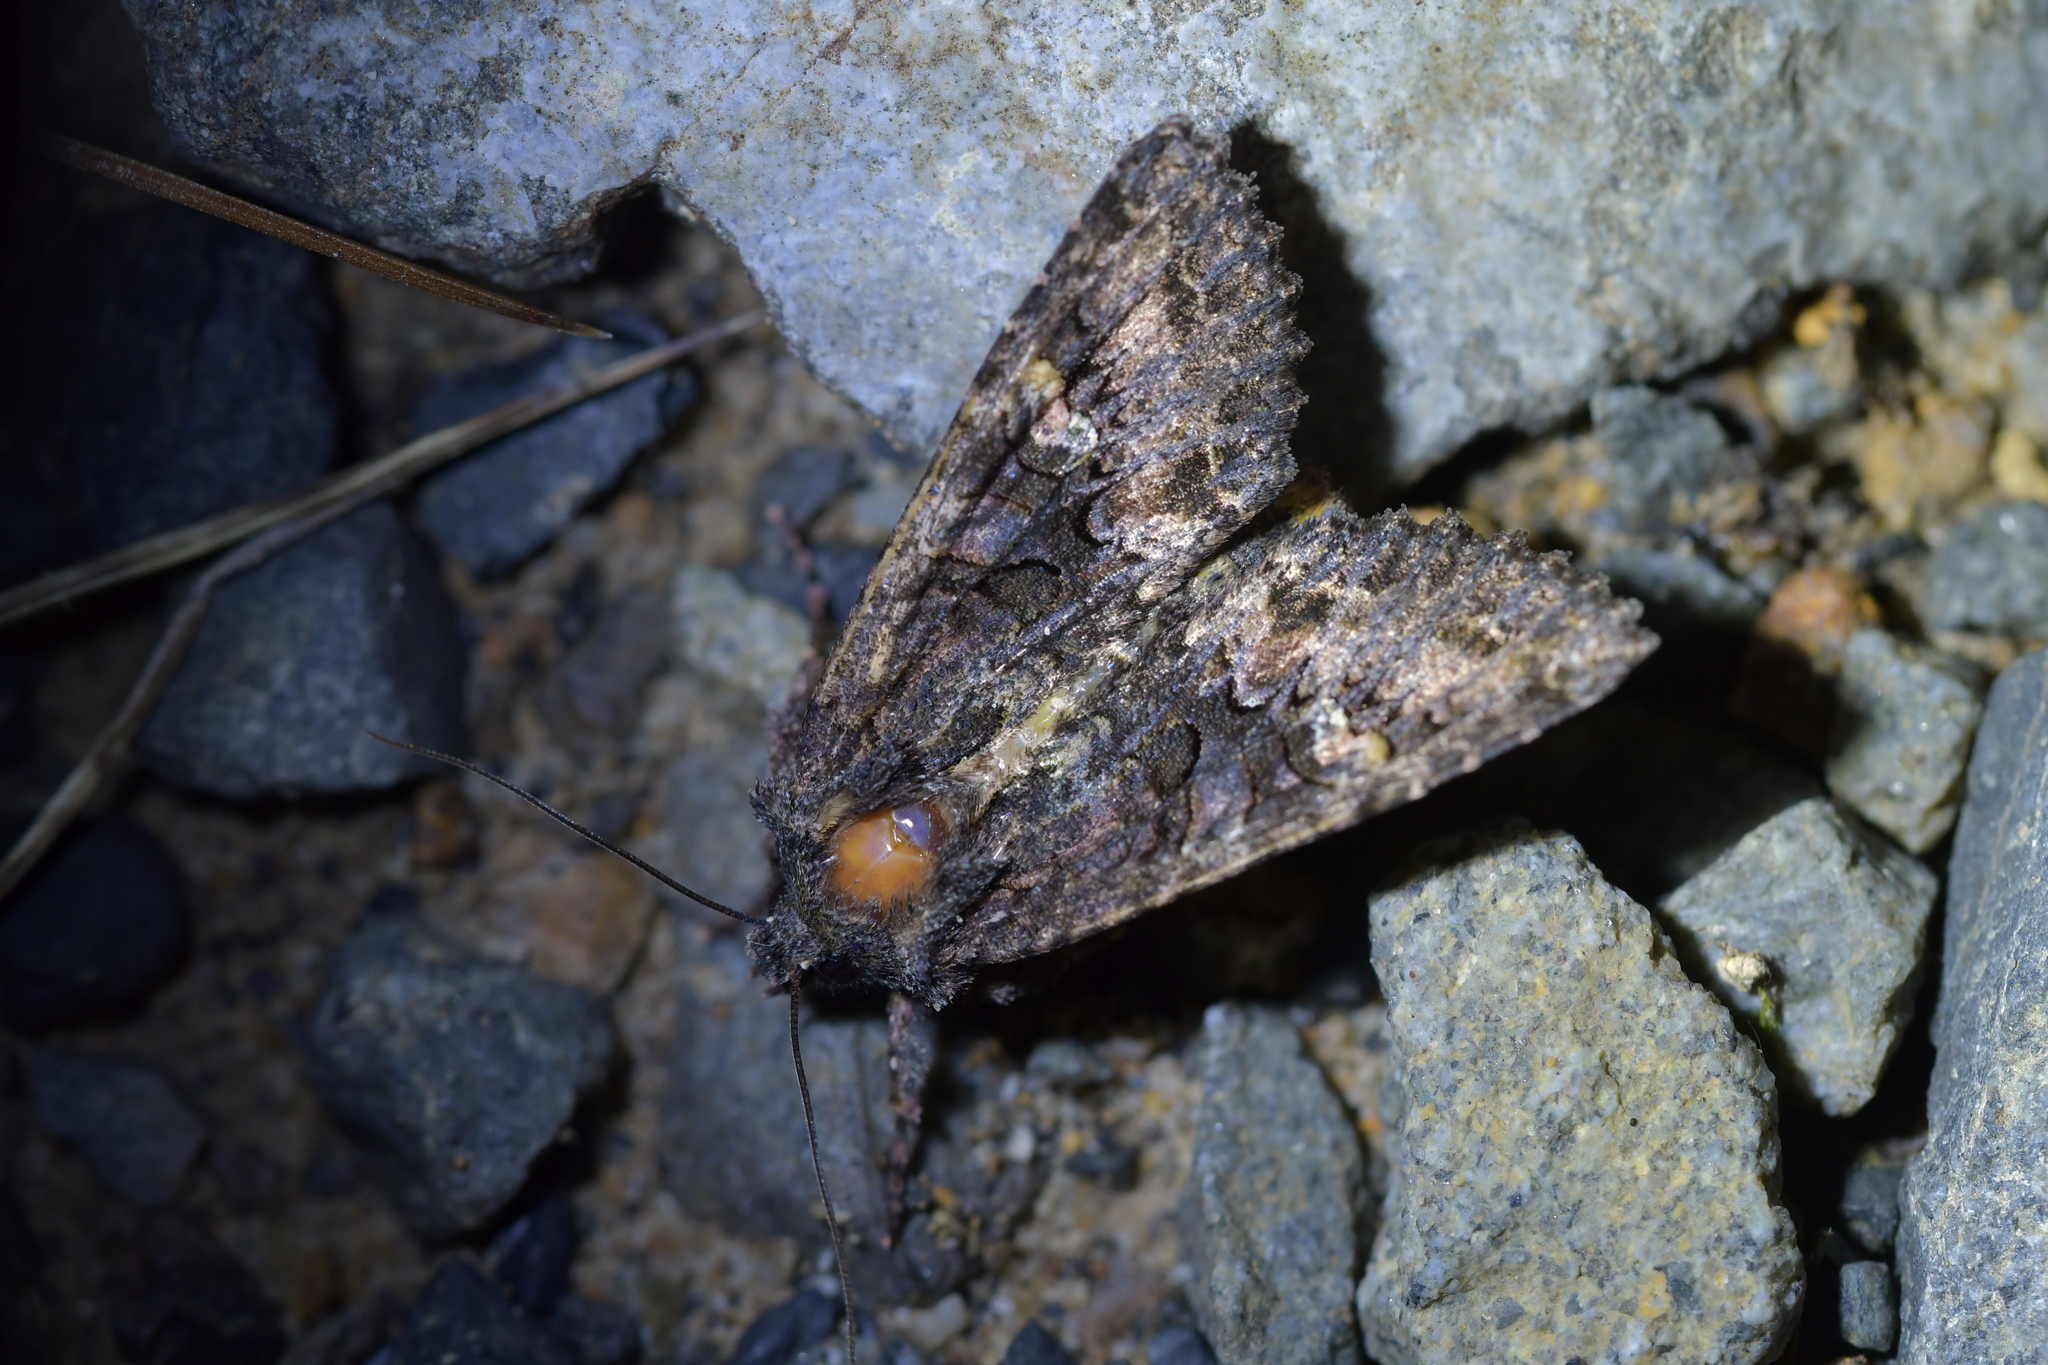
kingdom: Animalia
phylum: Arthropoda
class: Insecta
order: Lepidoptera
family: Noctuidae
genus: Meterana
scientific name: Meterana dotata
